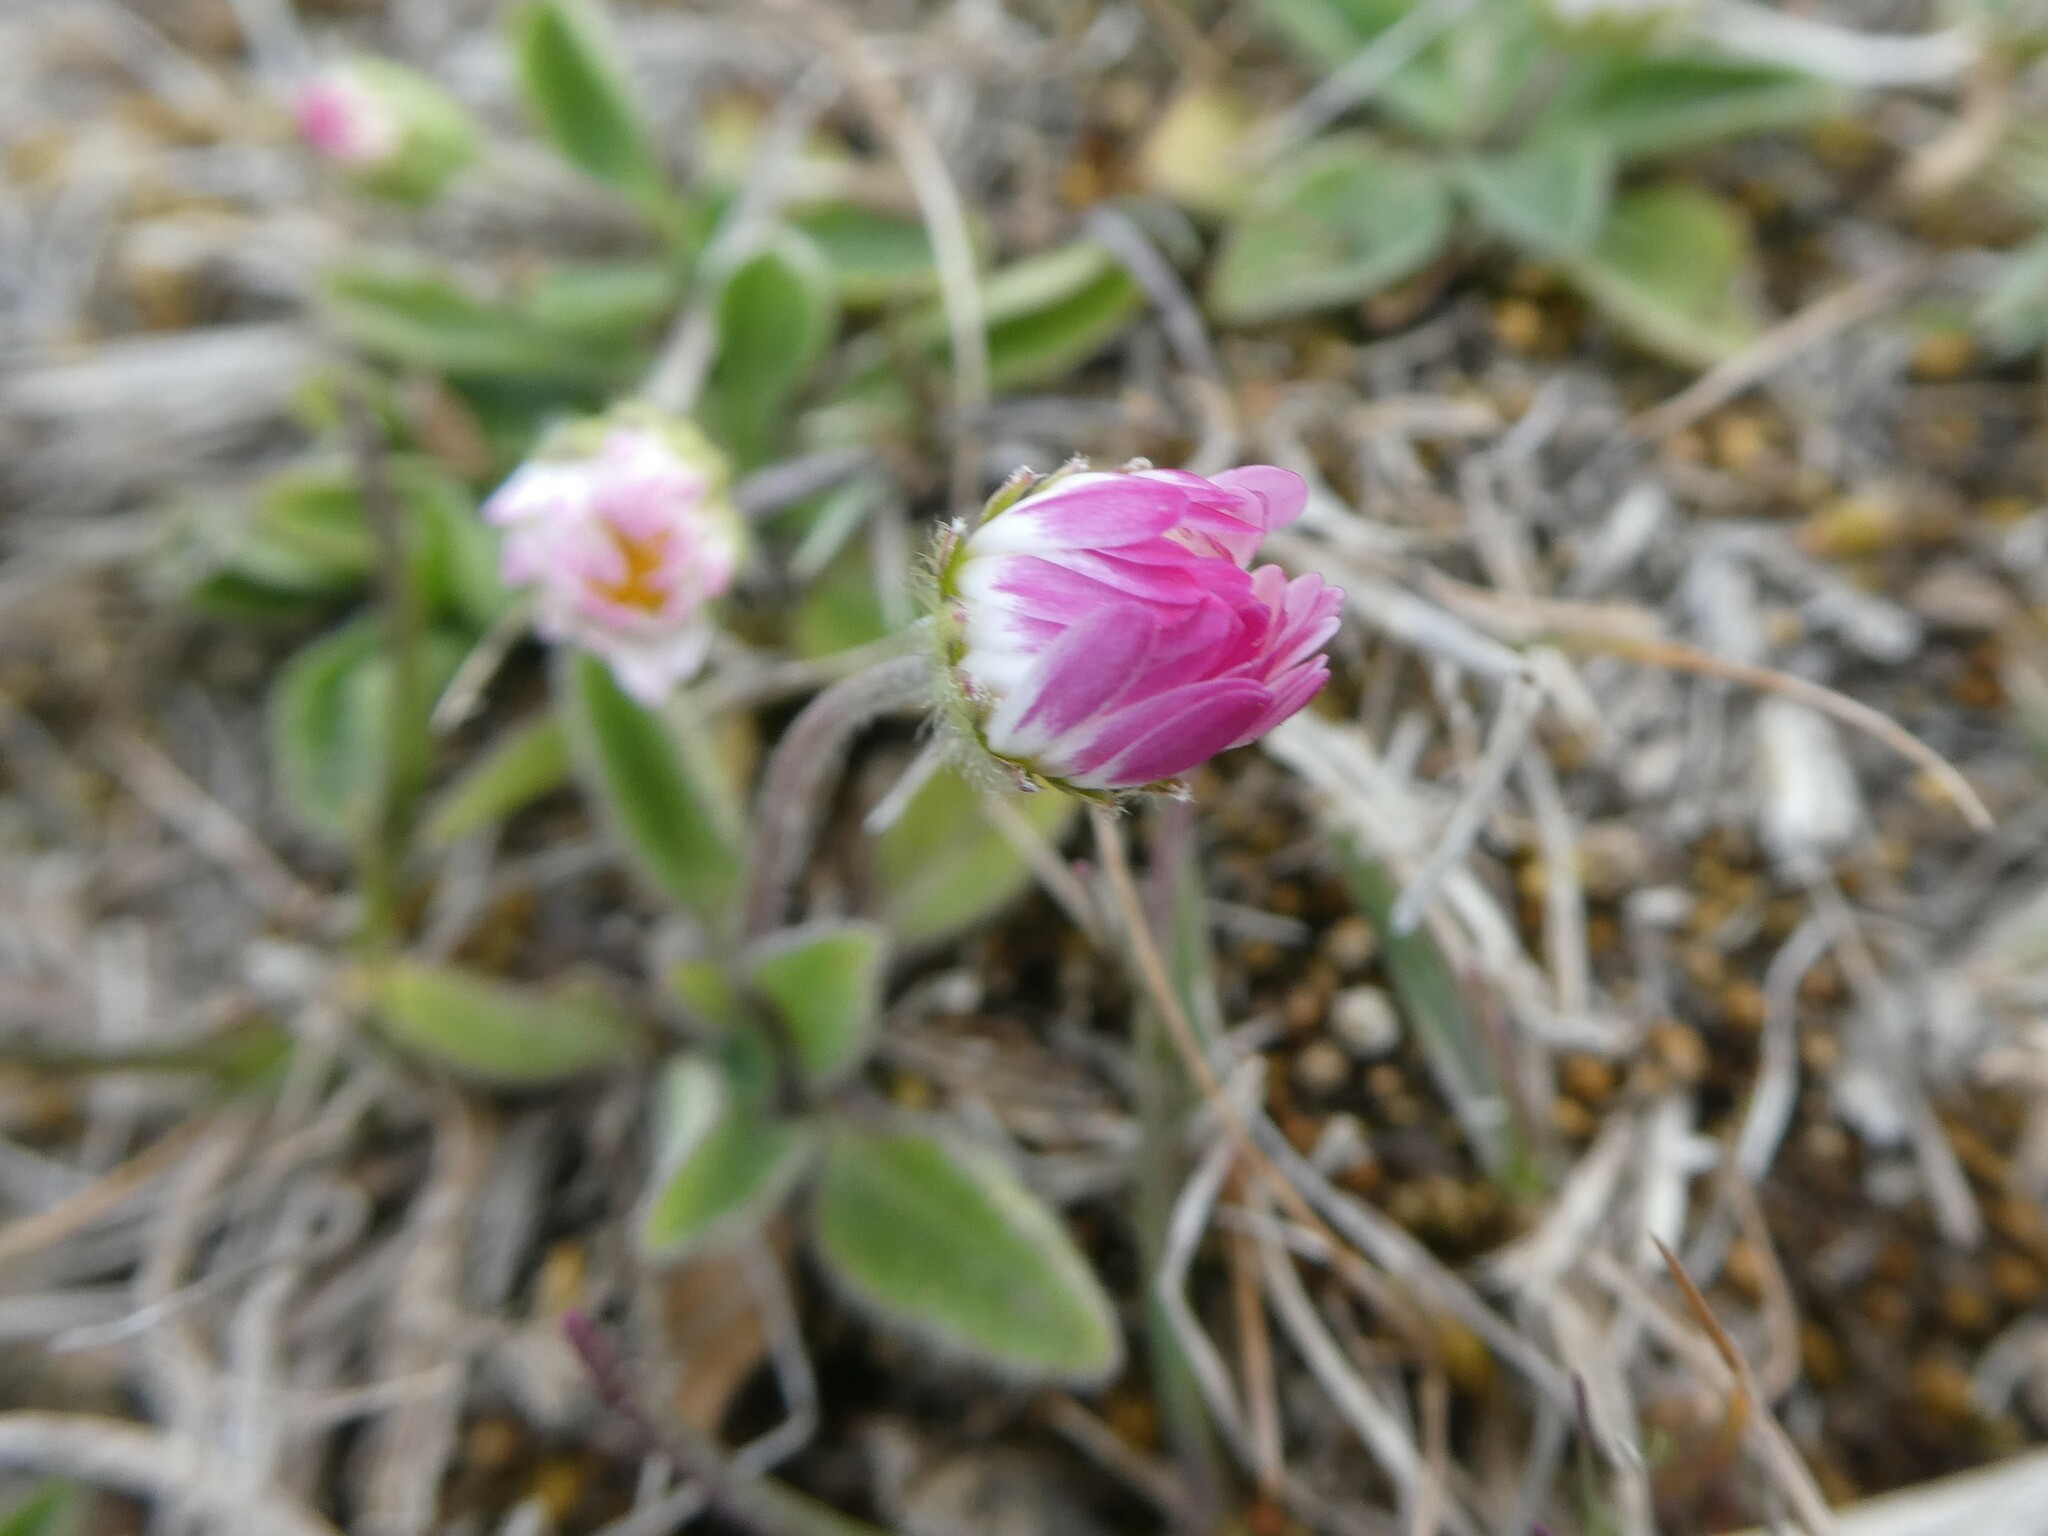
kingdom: Plantae
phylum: Tracheophyta
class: Magnoliopsida
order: Asterales
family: Asteraceae
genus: Bellis
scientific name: Bellis perennis
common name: Lawndaisy
